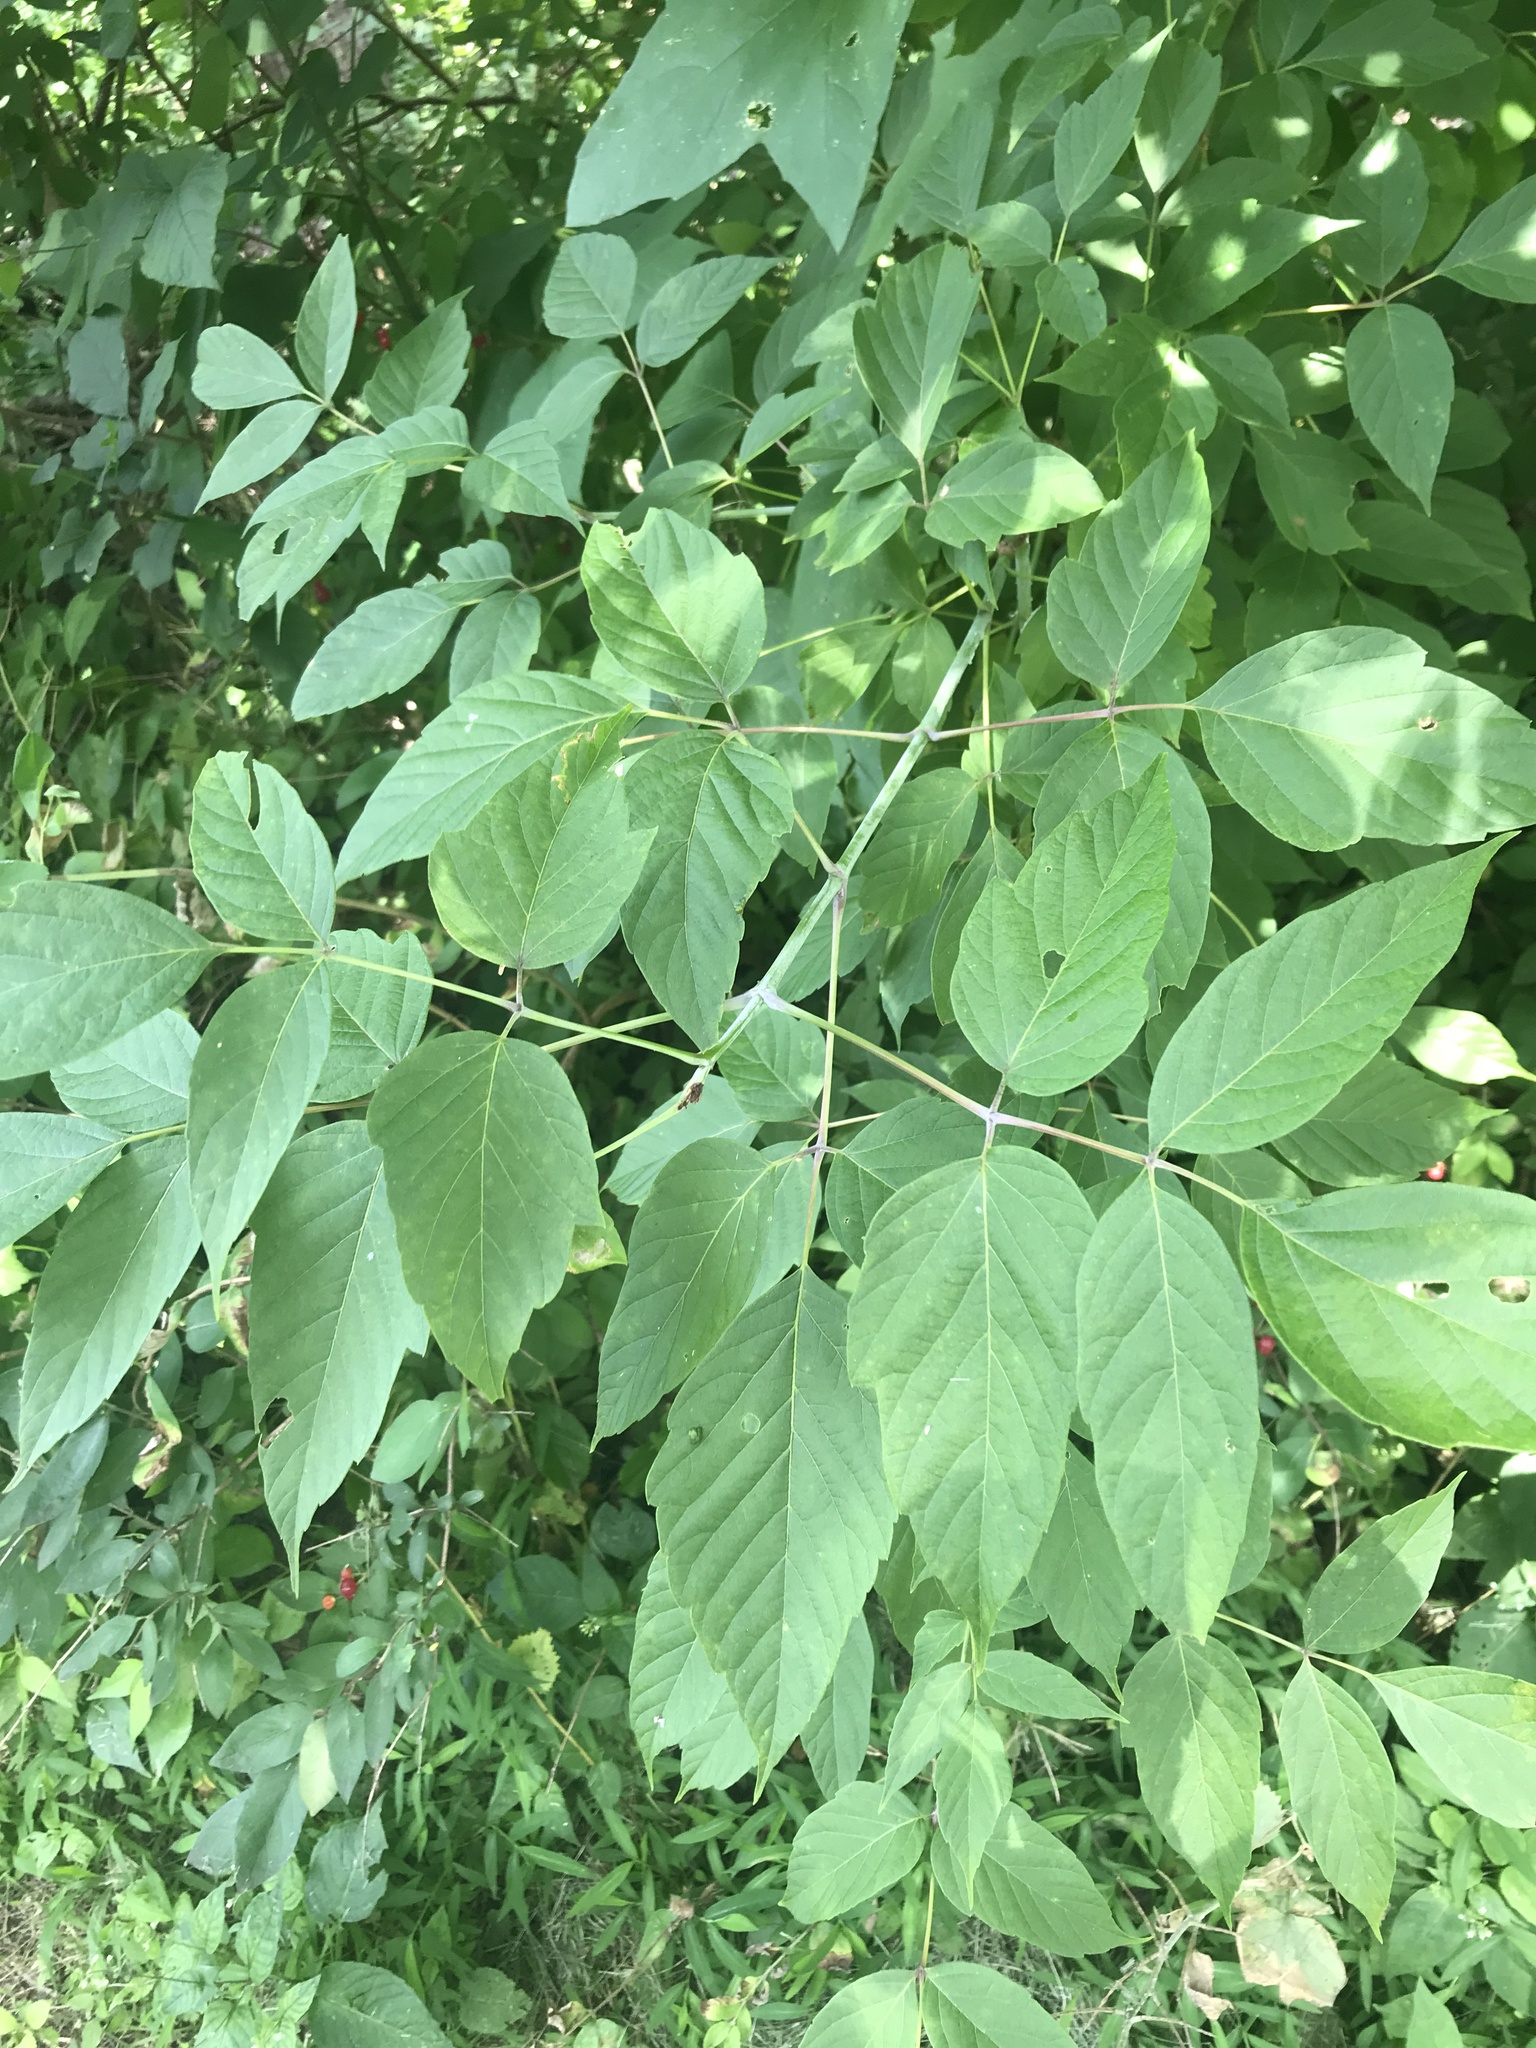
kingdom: Plantae
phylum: Tracheophyta
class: Magnoliopsida
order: Sapindales
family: Sapindaceae
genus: Acer
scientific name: Acer negundo
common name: Ashleaf maple
